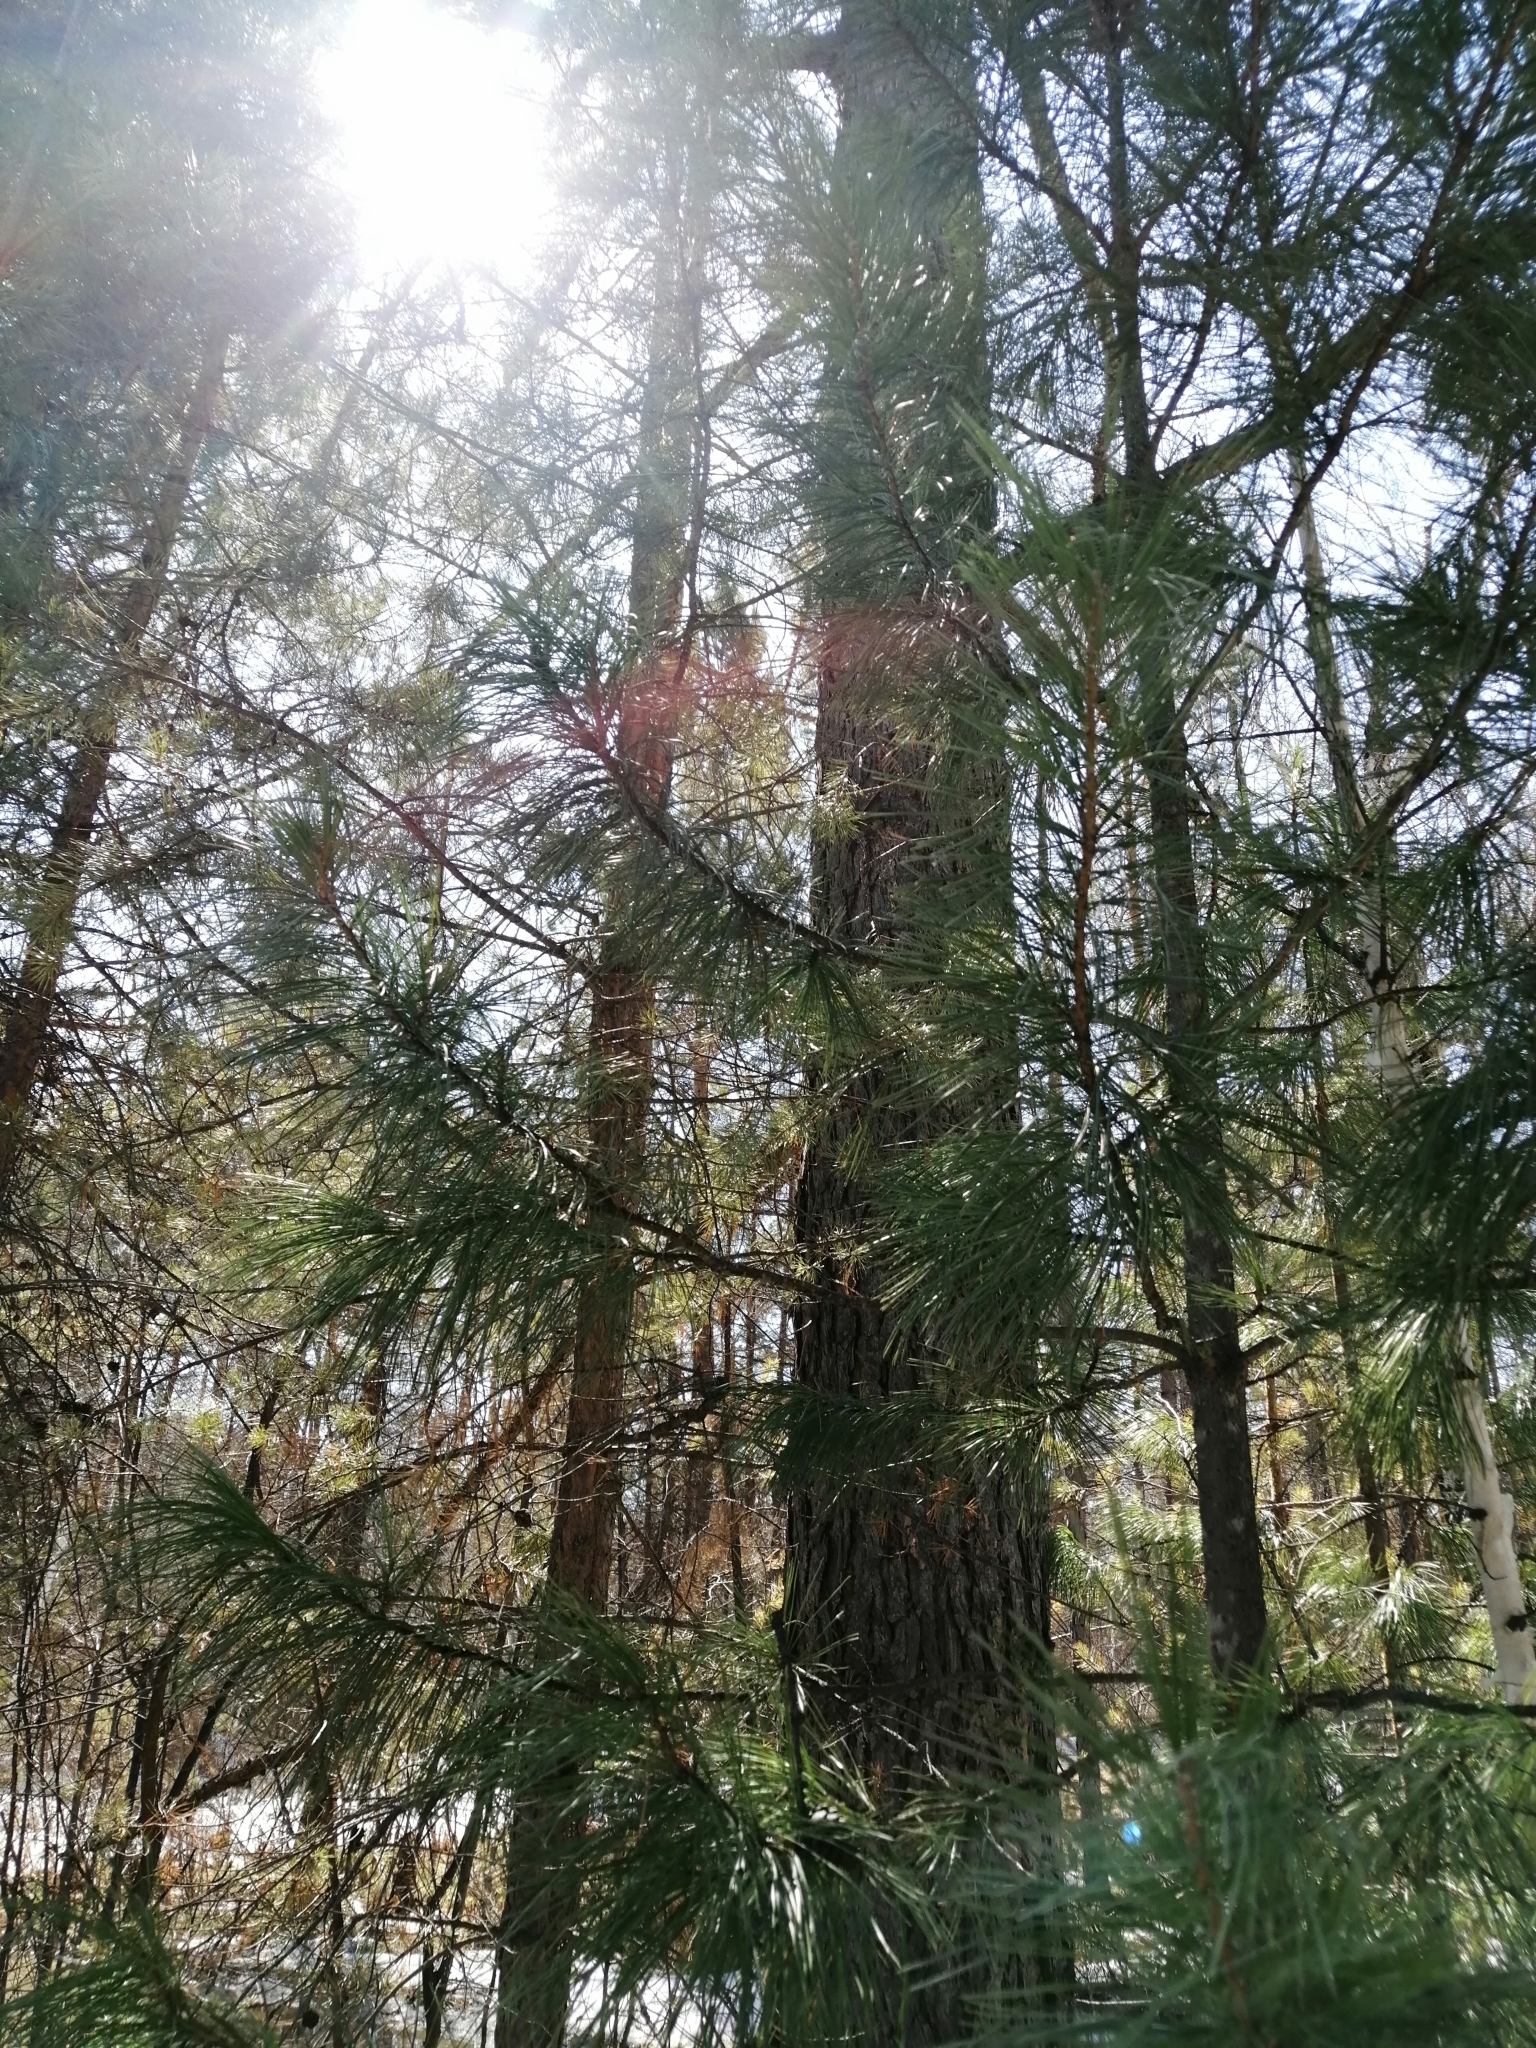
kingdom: Plantae
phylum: Tracheophyta
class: Pinopsida
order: Pinales
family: Pinaceae
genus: Pinus
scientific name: Pinus sibirica
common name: Siberian pine
